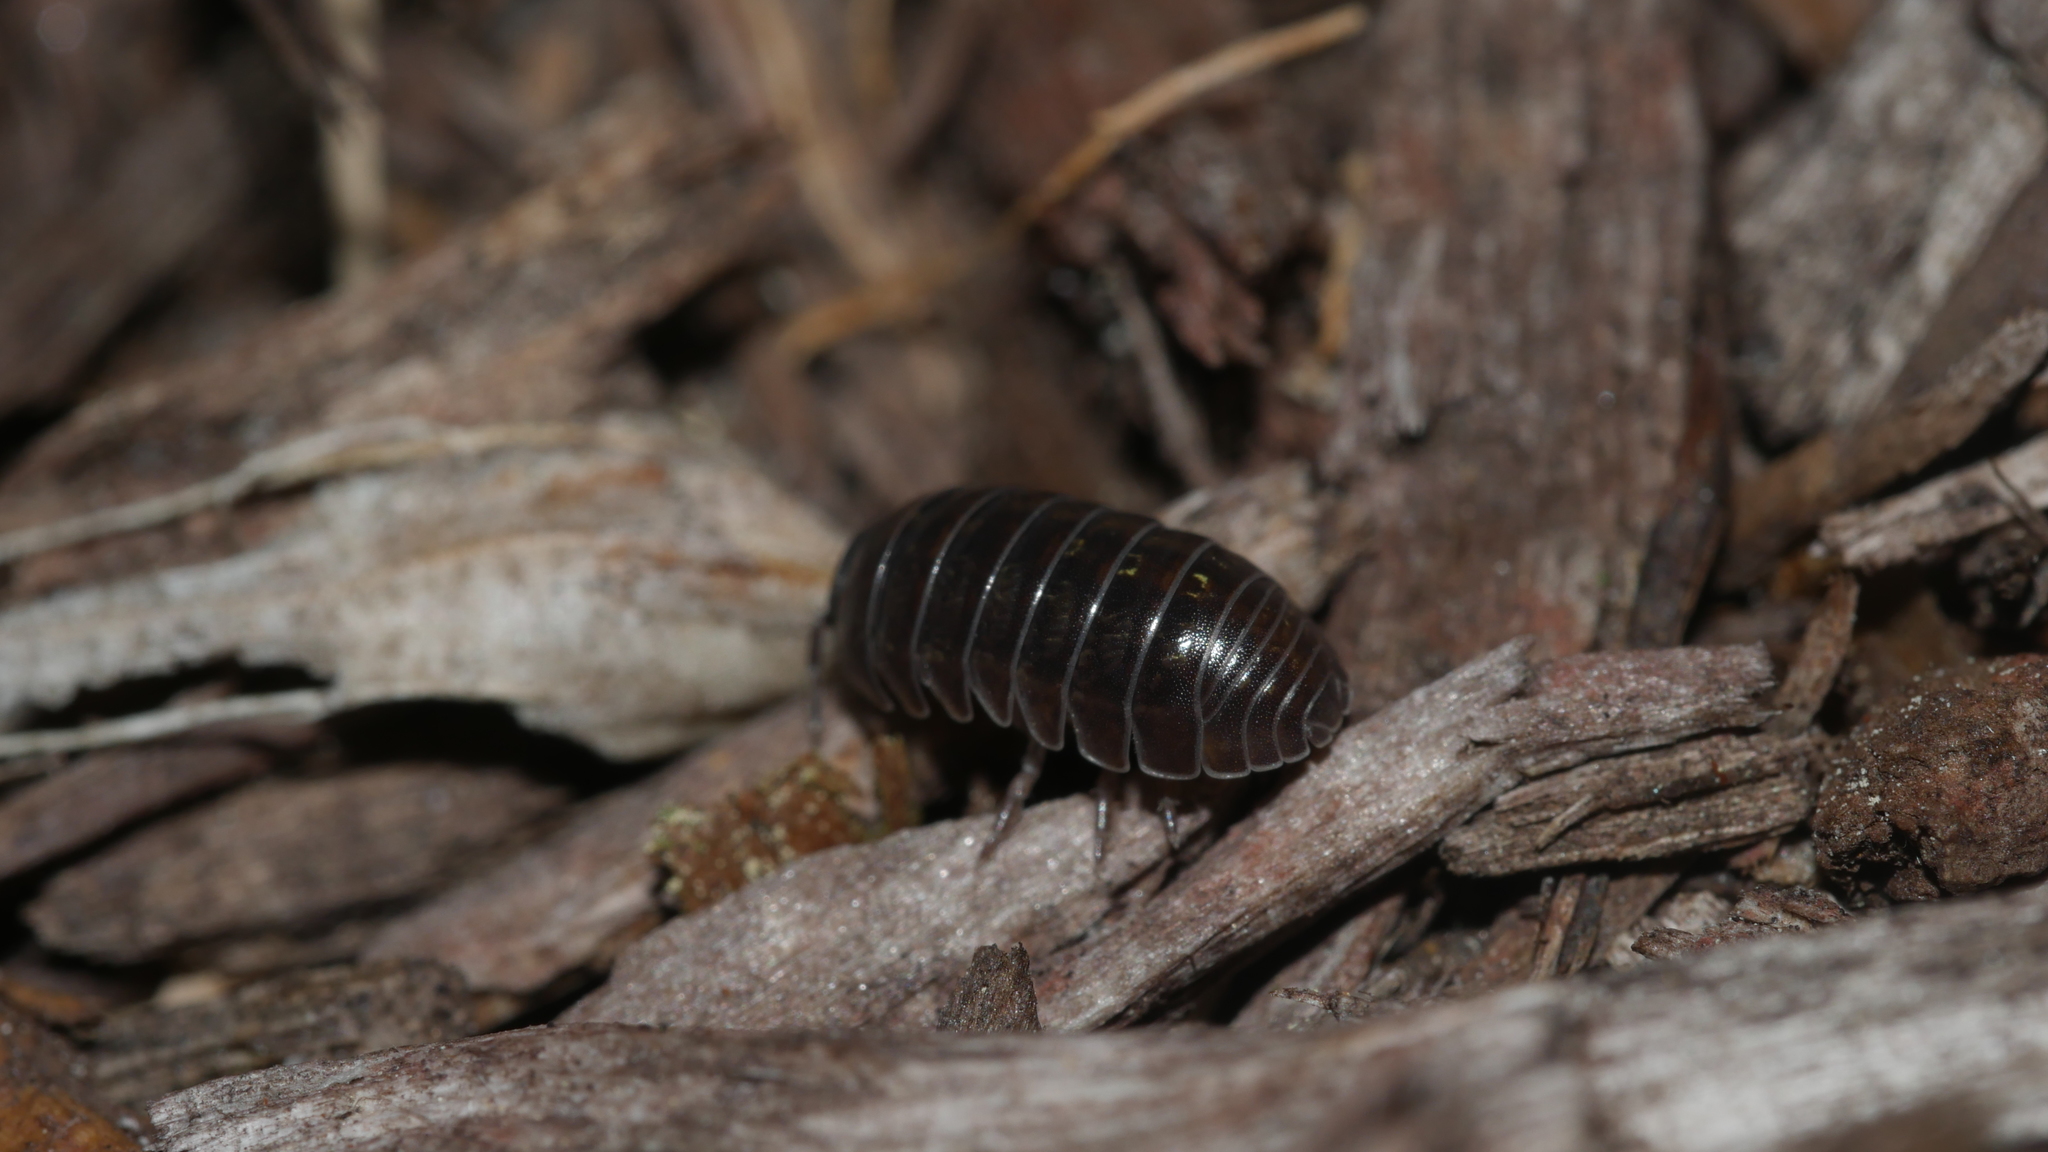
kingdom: Animalia
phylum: Arthropoda
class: Malacostraca
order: Isopoda
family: Armadillidiidae
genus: Armadillidium
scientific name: Armadillidium vulgare
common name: Common pill woodlouse
